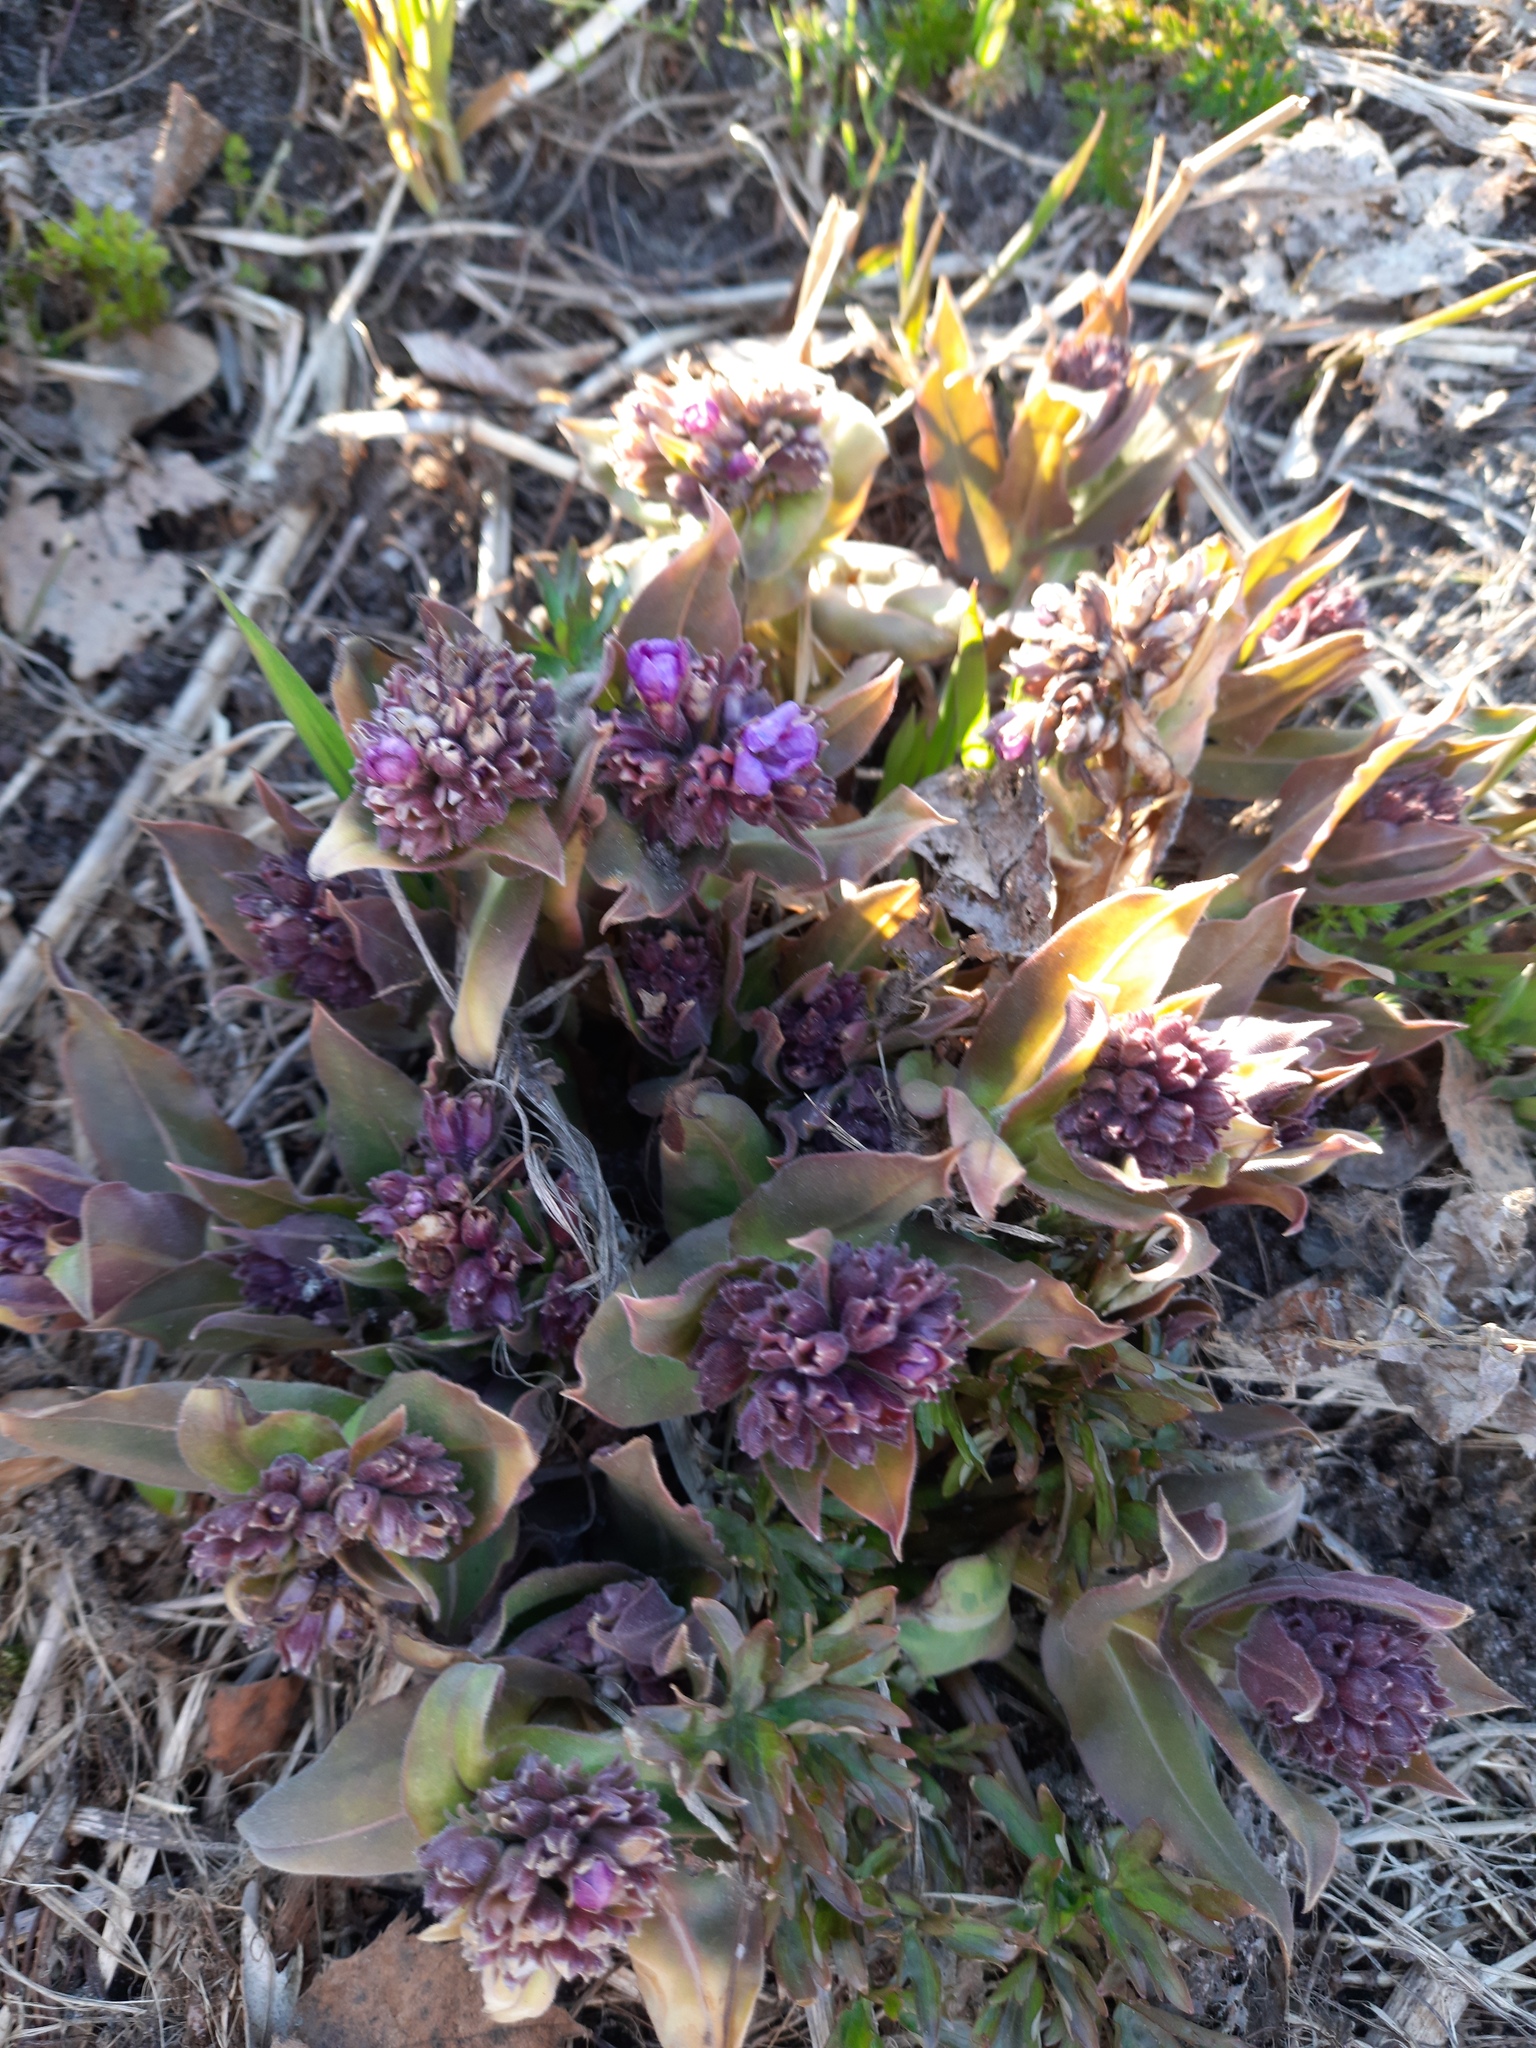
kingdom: Plantae
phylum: Tracheophyta
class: Magnoliopsida
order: Boraginales
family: Boraginaceae
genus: Pulmonaria
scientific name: Pulmonaria mollis
